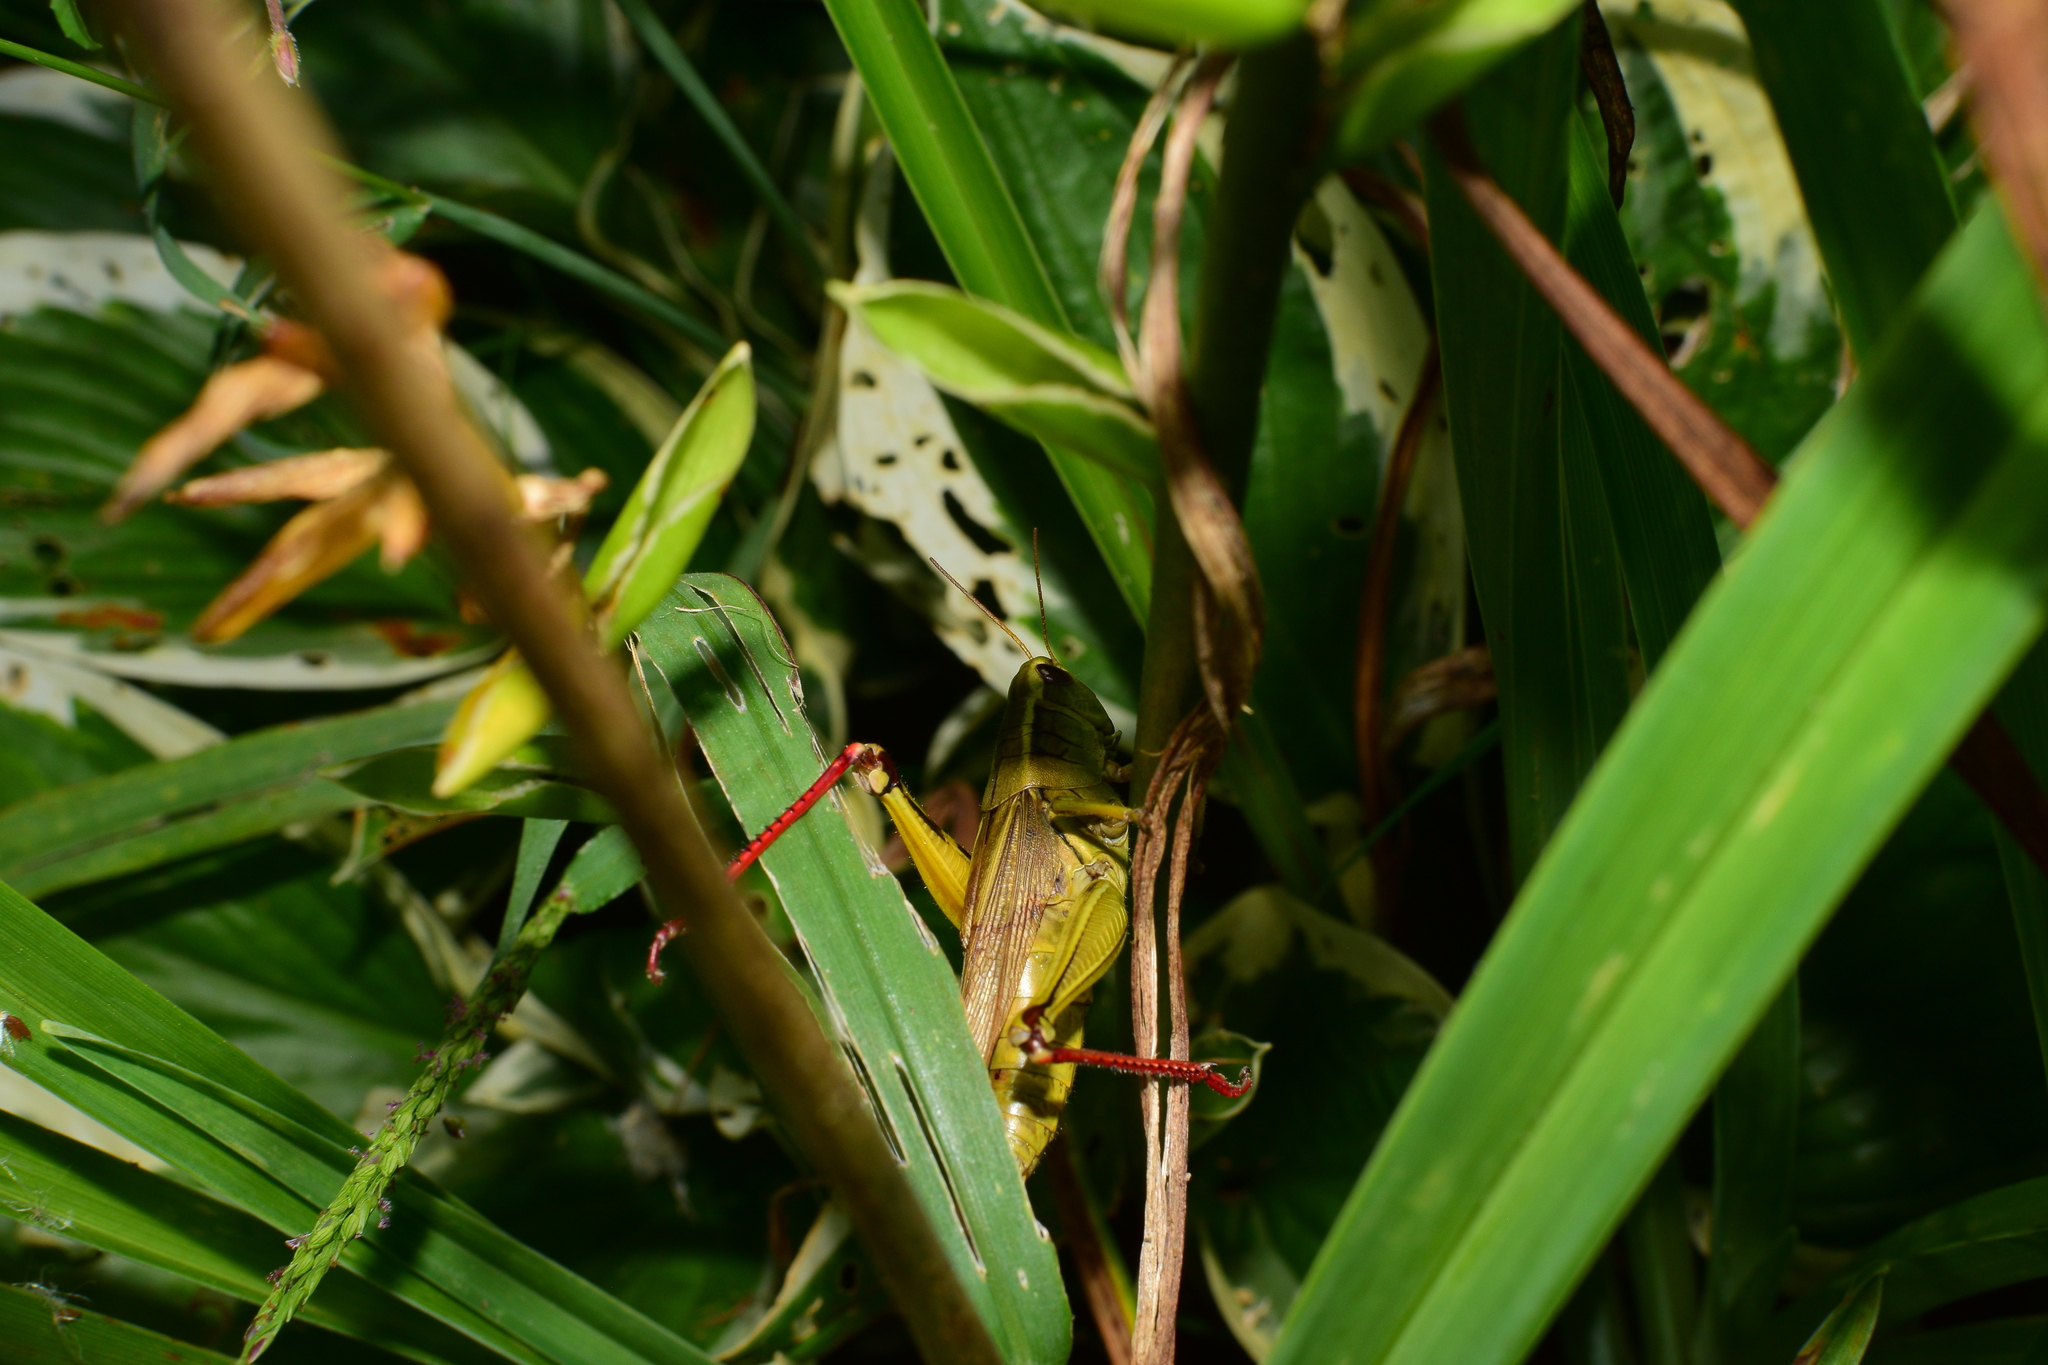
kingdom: Animalia
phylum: Arthropoda
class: Insecta
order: Orthoptera
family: Acrididae
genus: Melanoplus
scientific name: Melanoplus bivittatus
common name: Two-striped grasshopper
